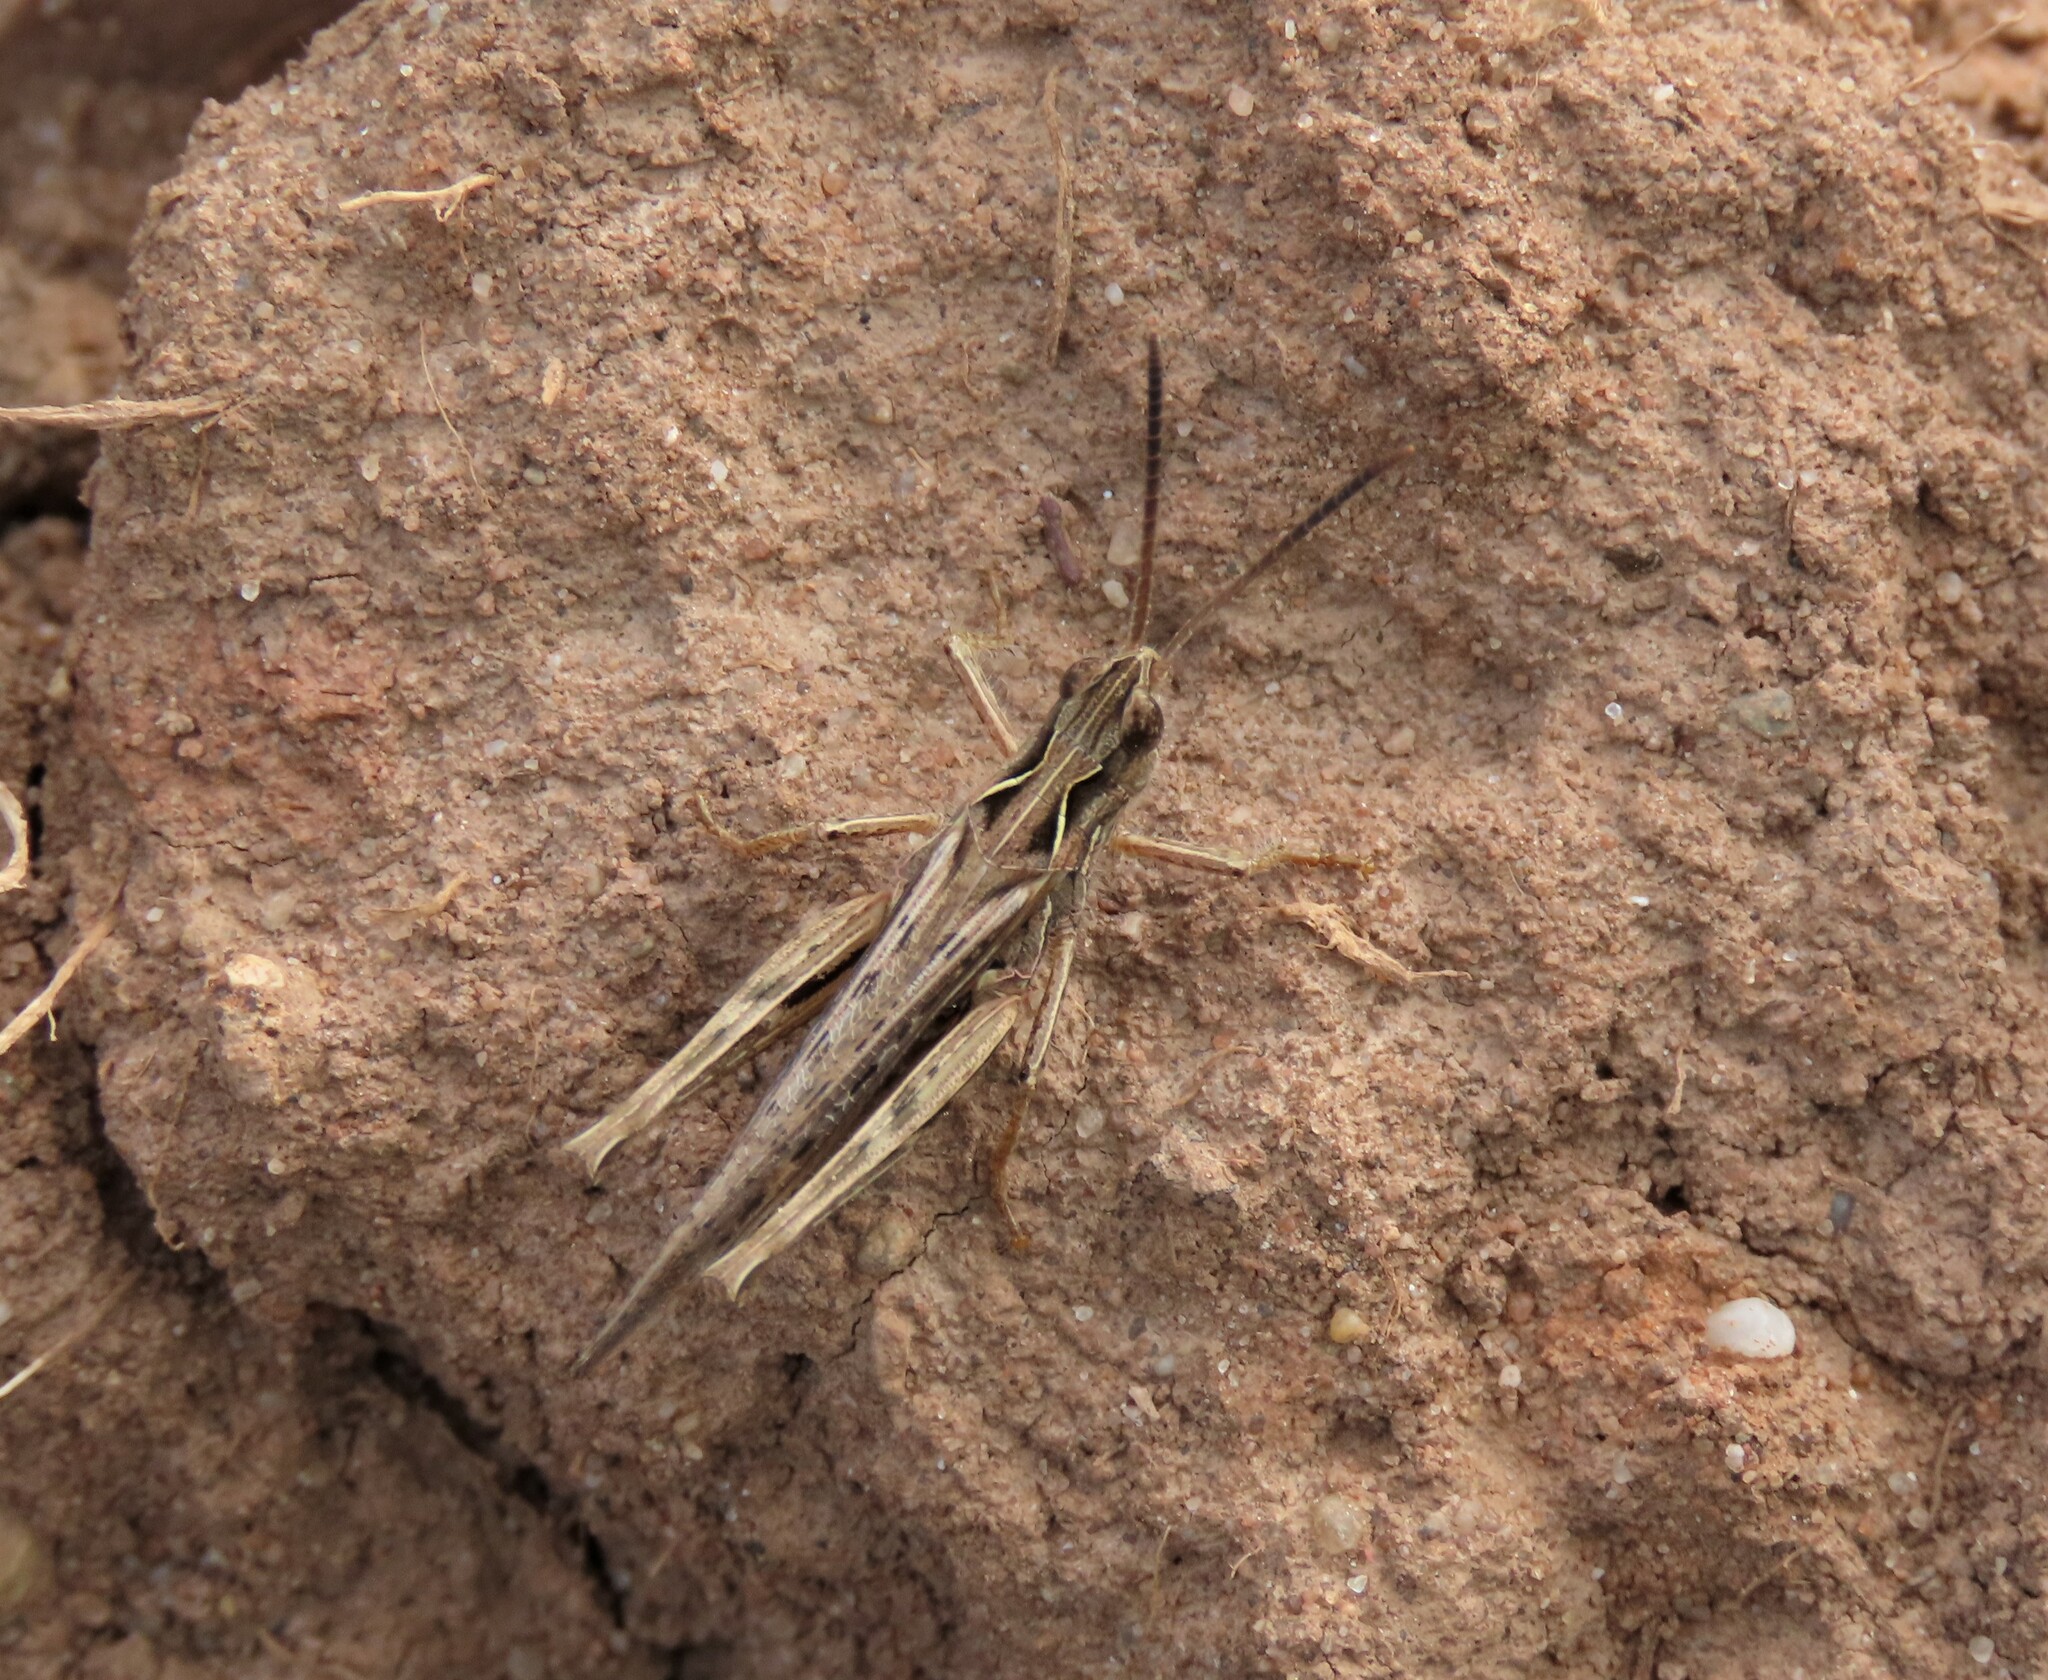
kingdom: Animalia
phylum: Arthropoda
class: Insecta
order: Orthoptera
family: Acrididae
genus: Chorthippus
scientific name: Chorthippus brunneus
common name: Field grasshopper
